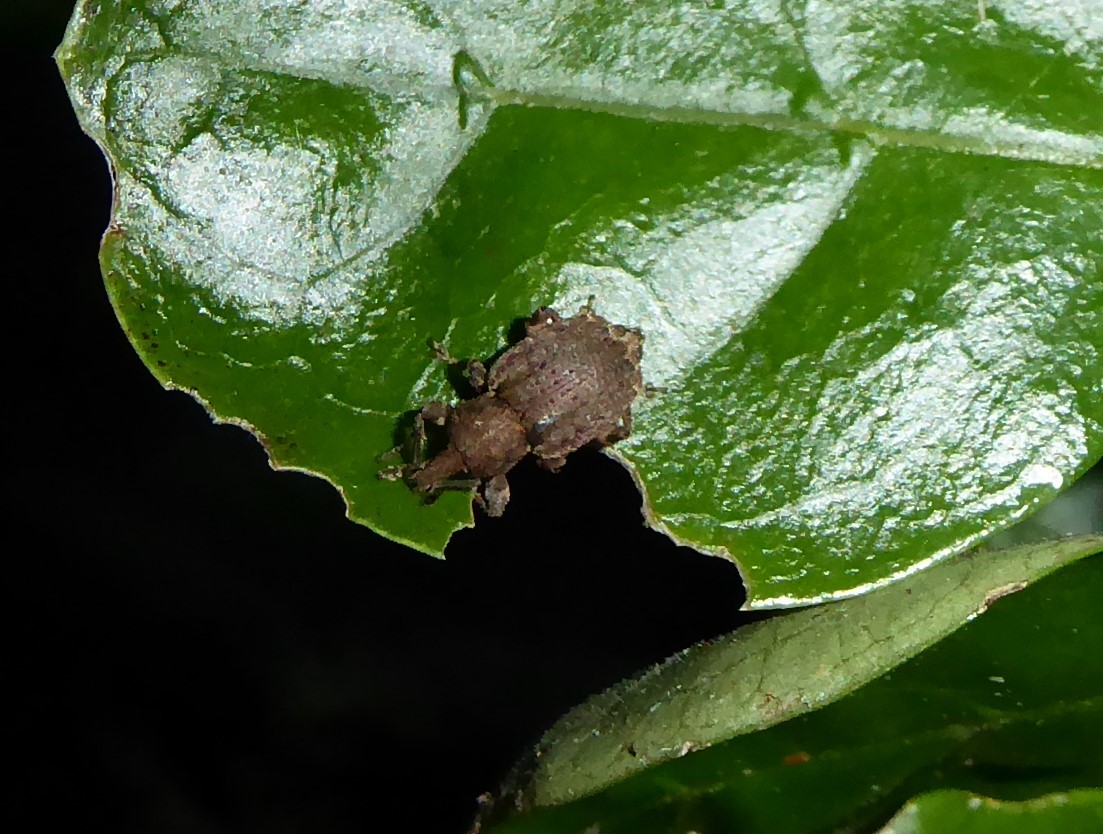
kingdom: Animalia
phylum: Arthropoda
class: Insecta
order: Coleoptera
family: Curculionidae
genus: Chalepistes
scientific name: Chalepistes rubidus
